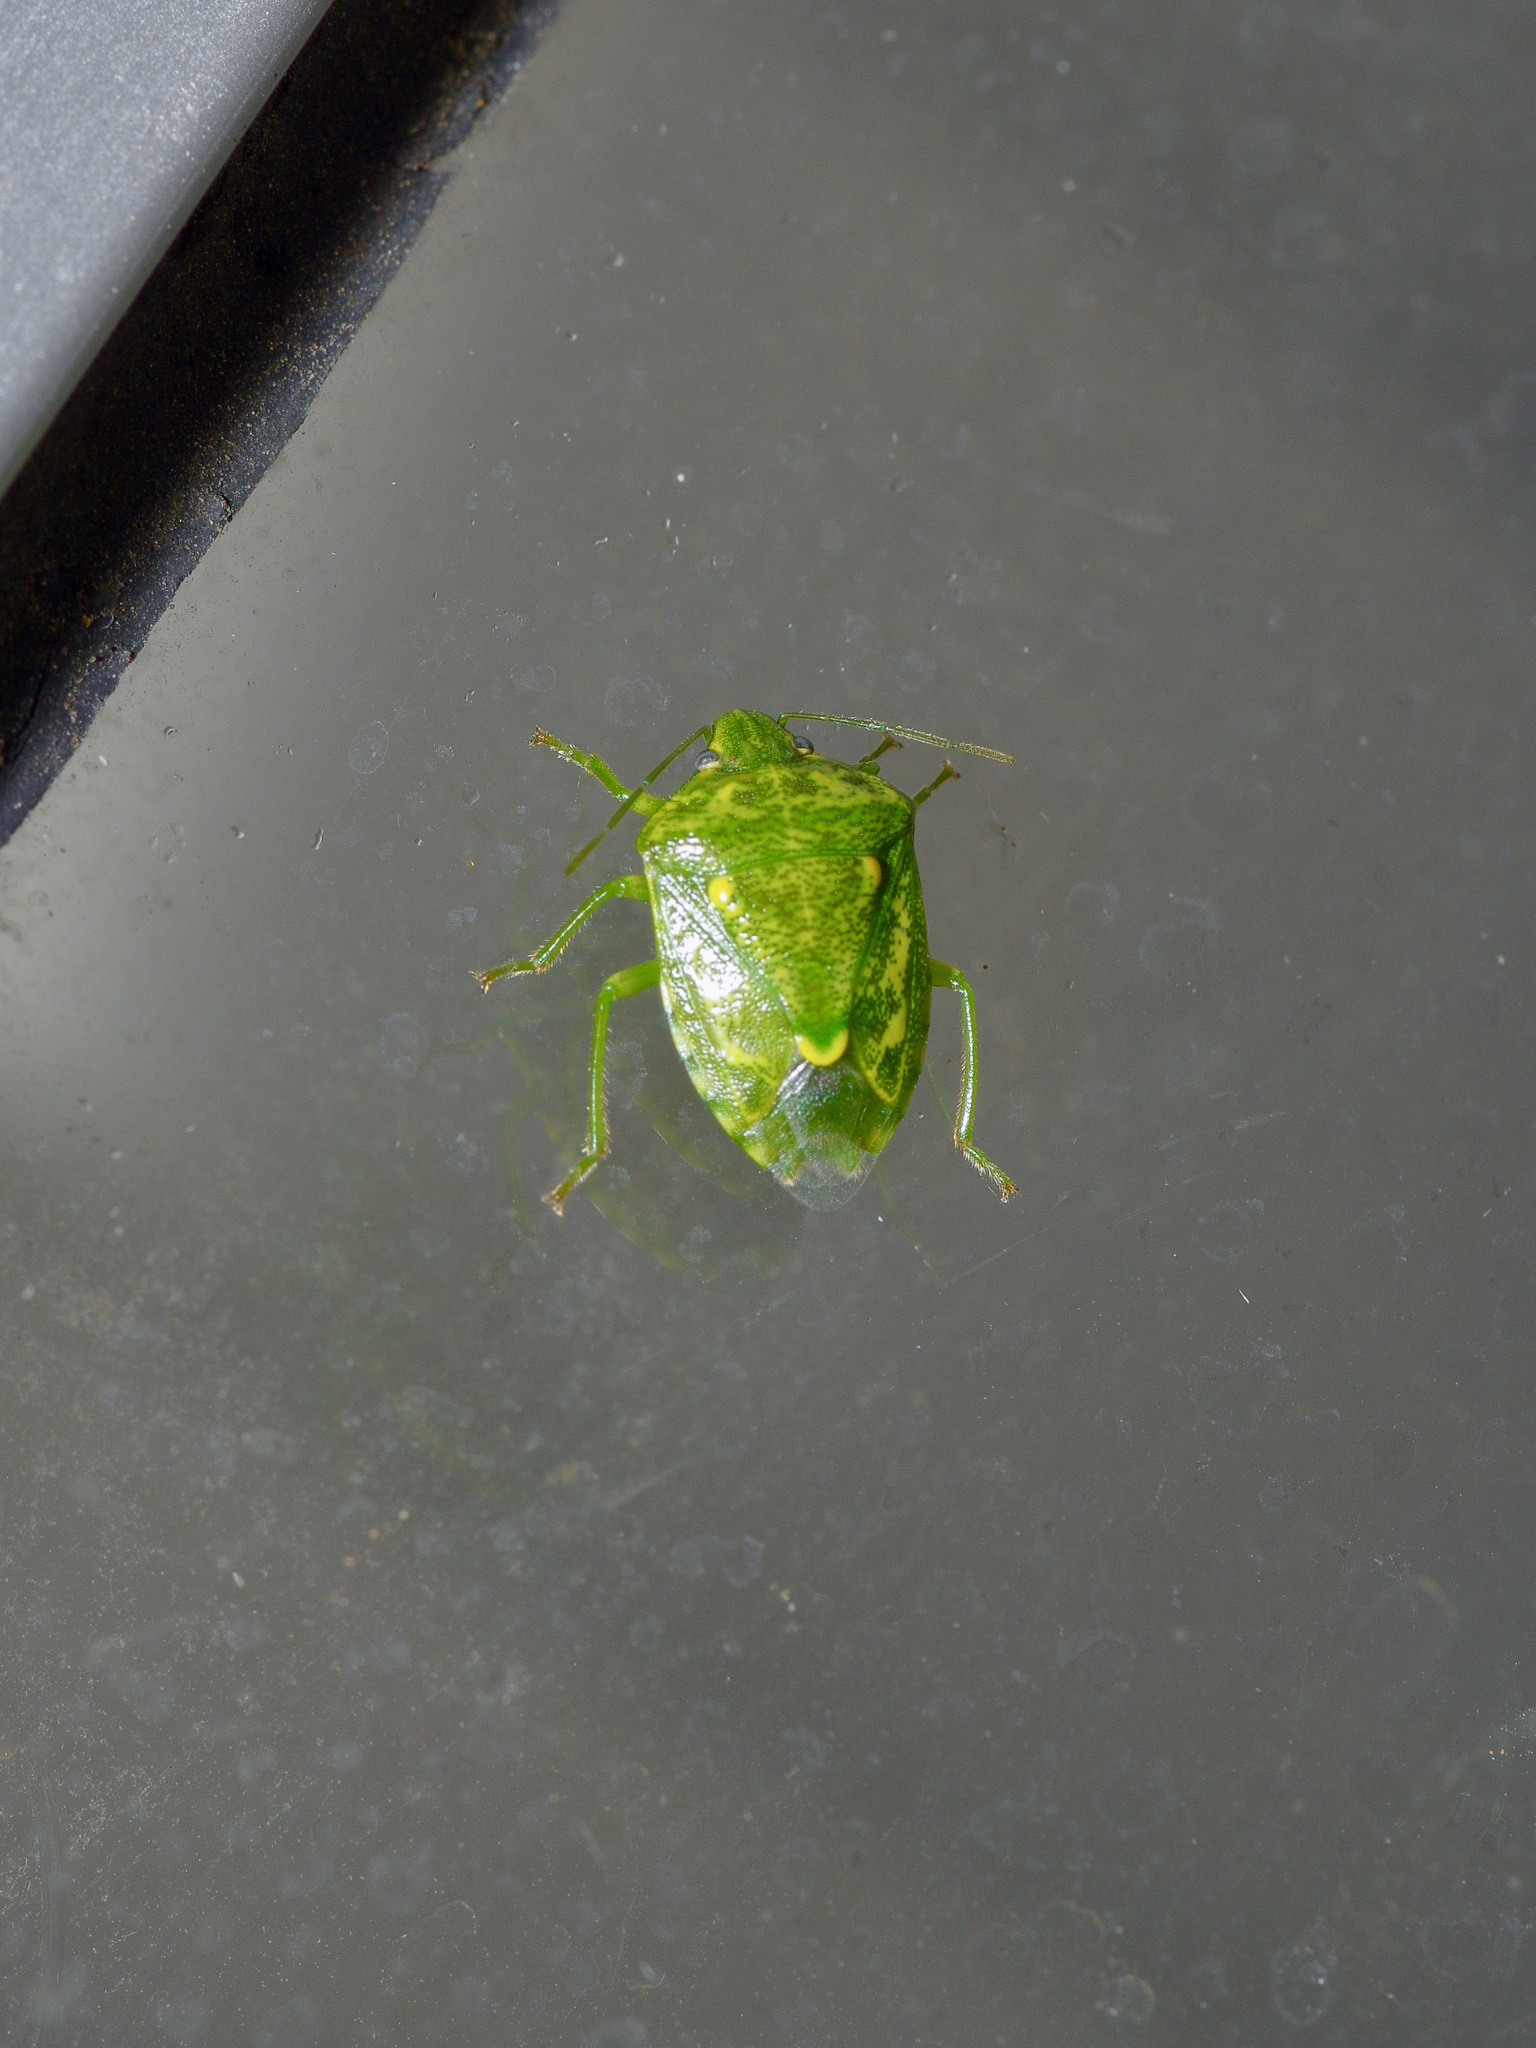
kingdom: Animalia
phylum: Arthropoda
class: Insecta
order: Hemiptera
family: Pentatomidae
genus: Banasa
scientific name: Banasa euchlora
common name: Cedar berry bug
